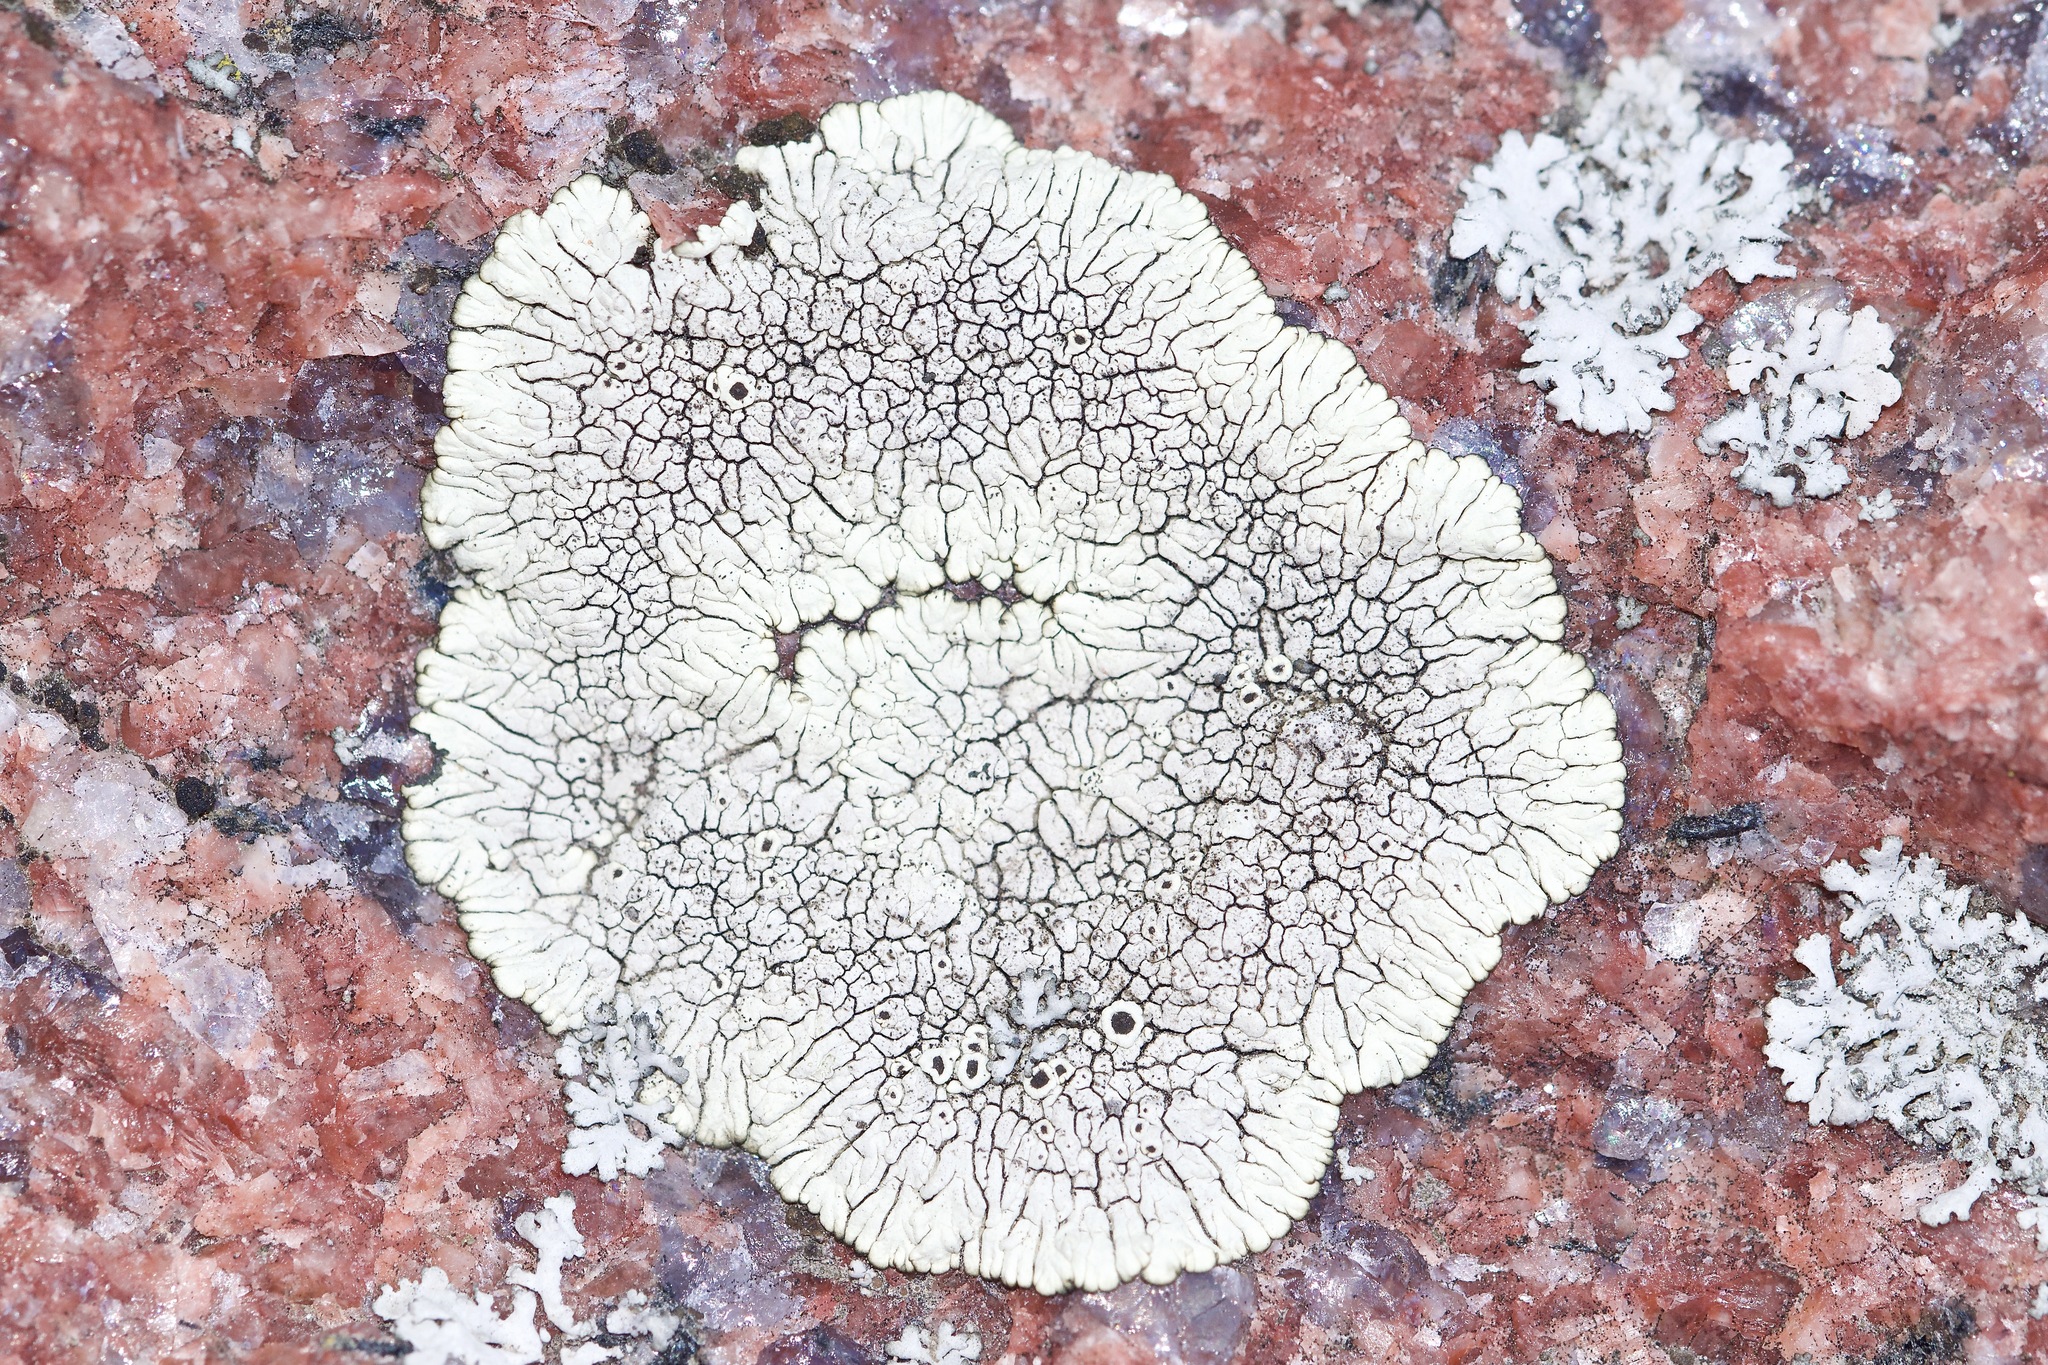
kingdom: Fungi
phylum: Ascomycota
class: Lecanoromycetes
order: Caliciales
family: Caliciaceae
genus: Dimelaena
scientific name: Dimelaena oreina
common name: Golden moonglow lichen
